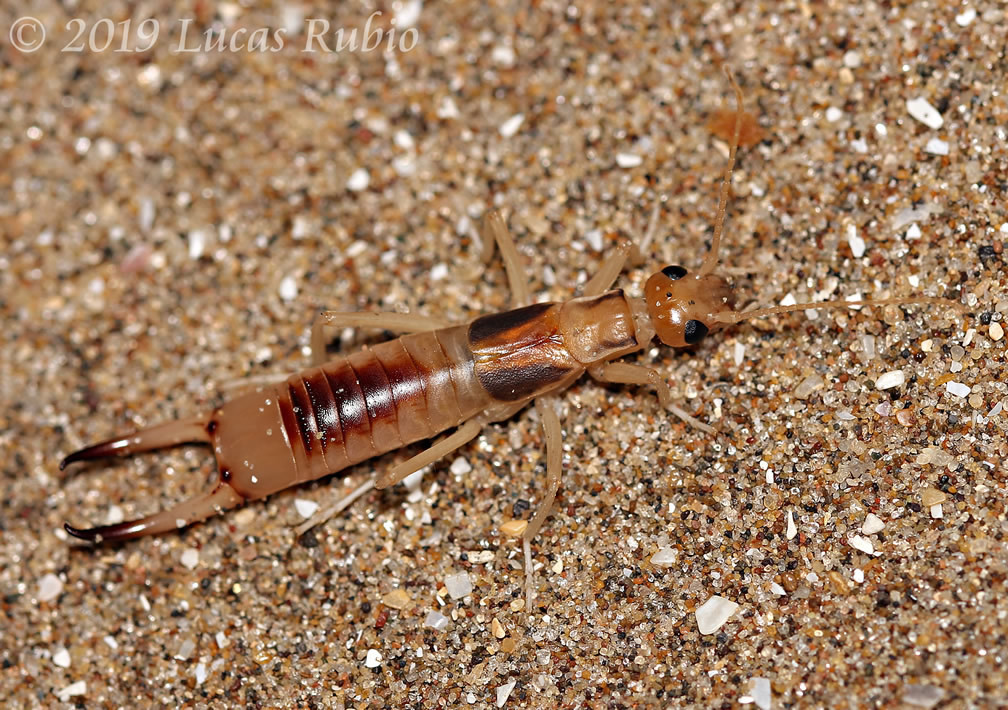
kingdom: Animalia
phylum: Arthropoda
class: Insecta
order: Dermaptera
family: Labiduridae
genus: Labidura
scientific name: Labidura riparia
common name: Striped earwig
